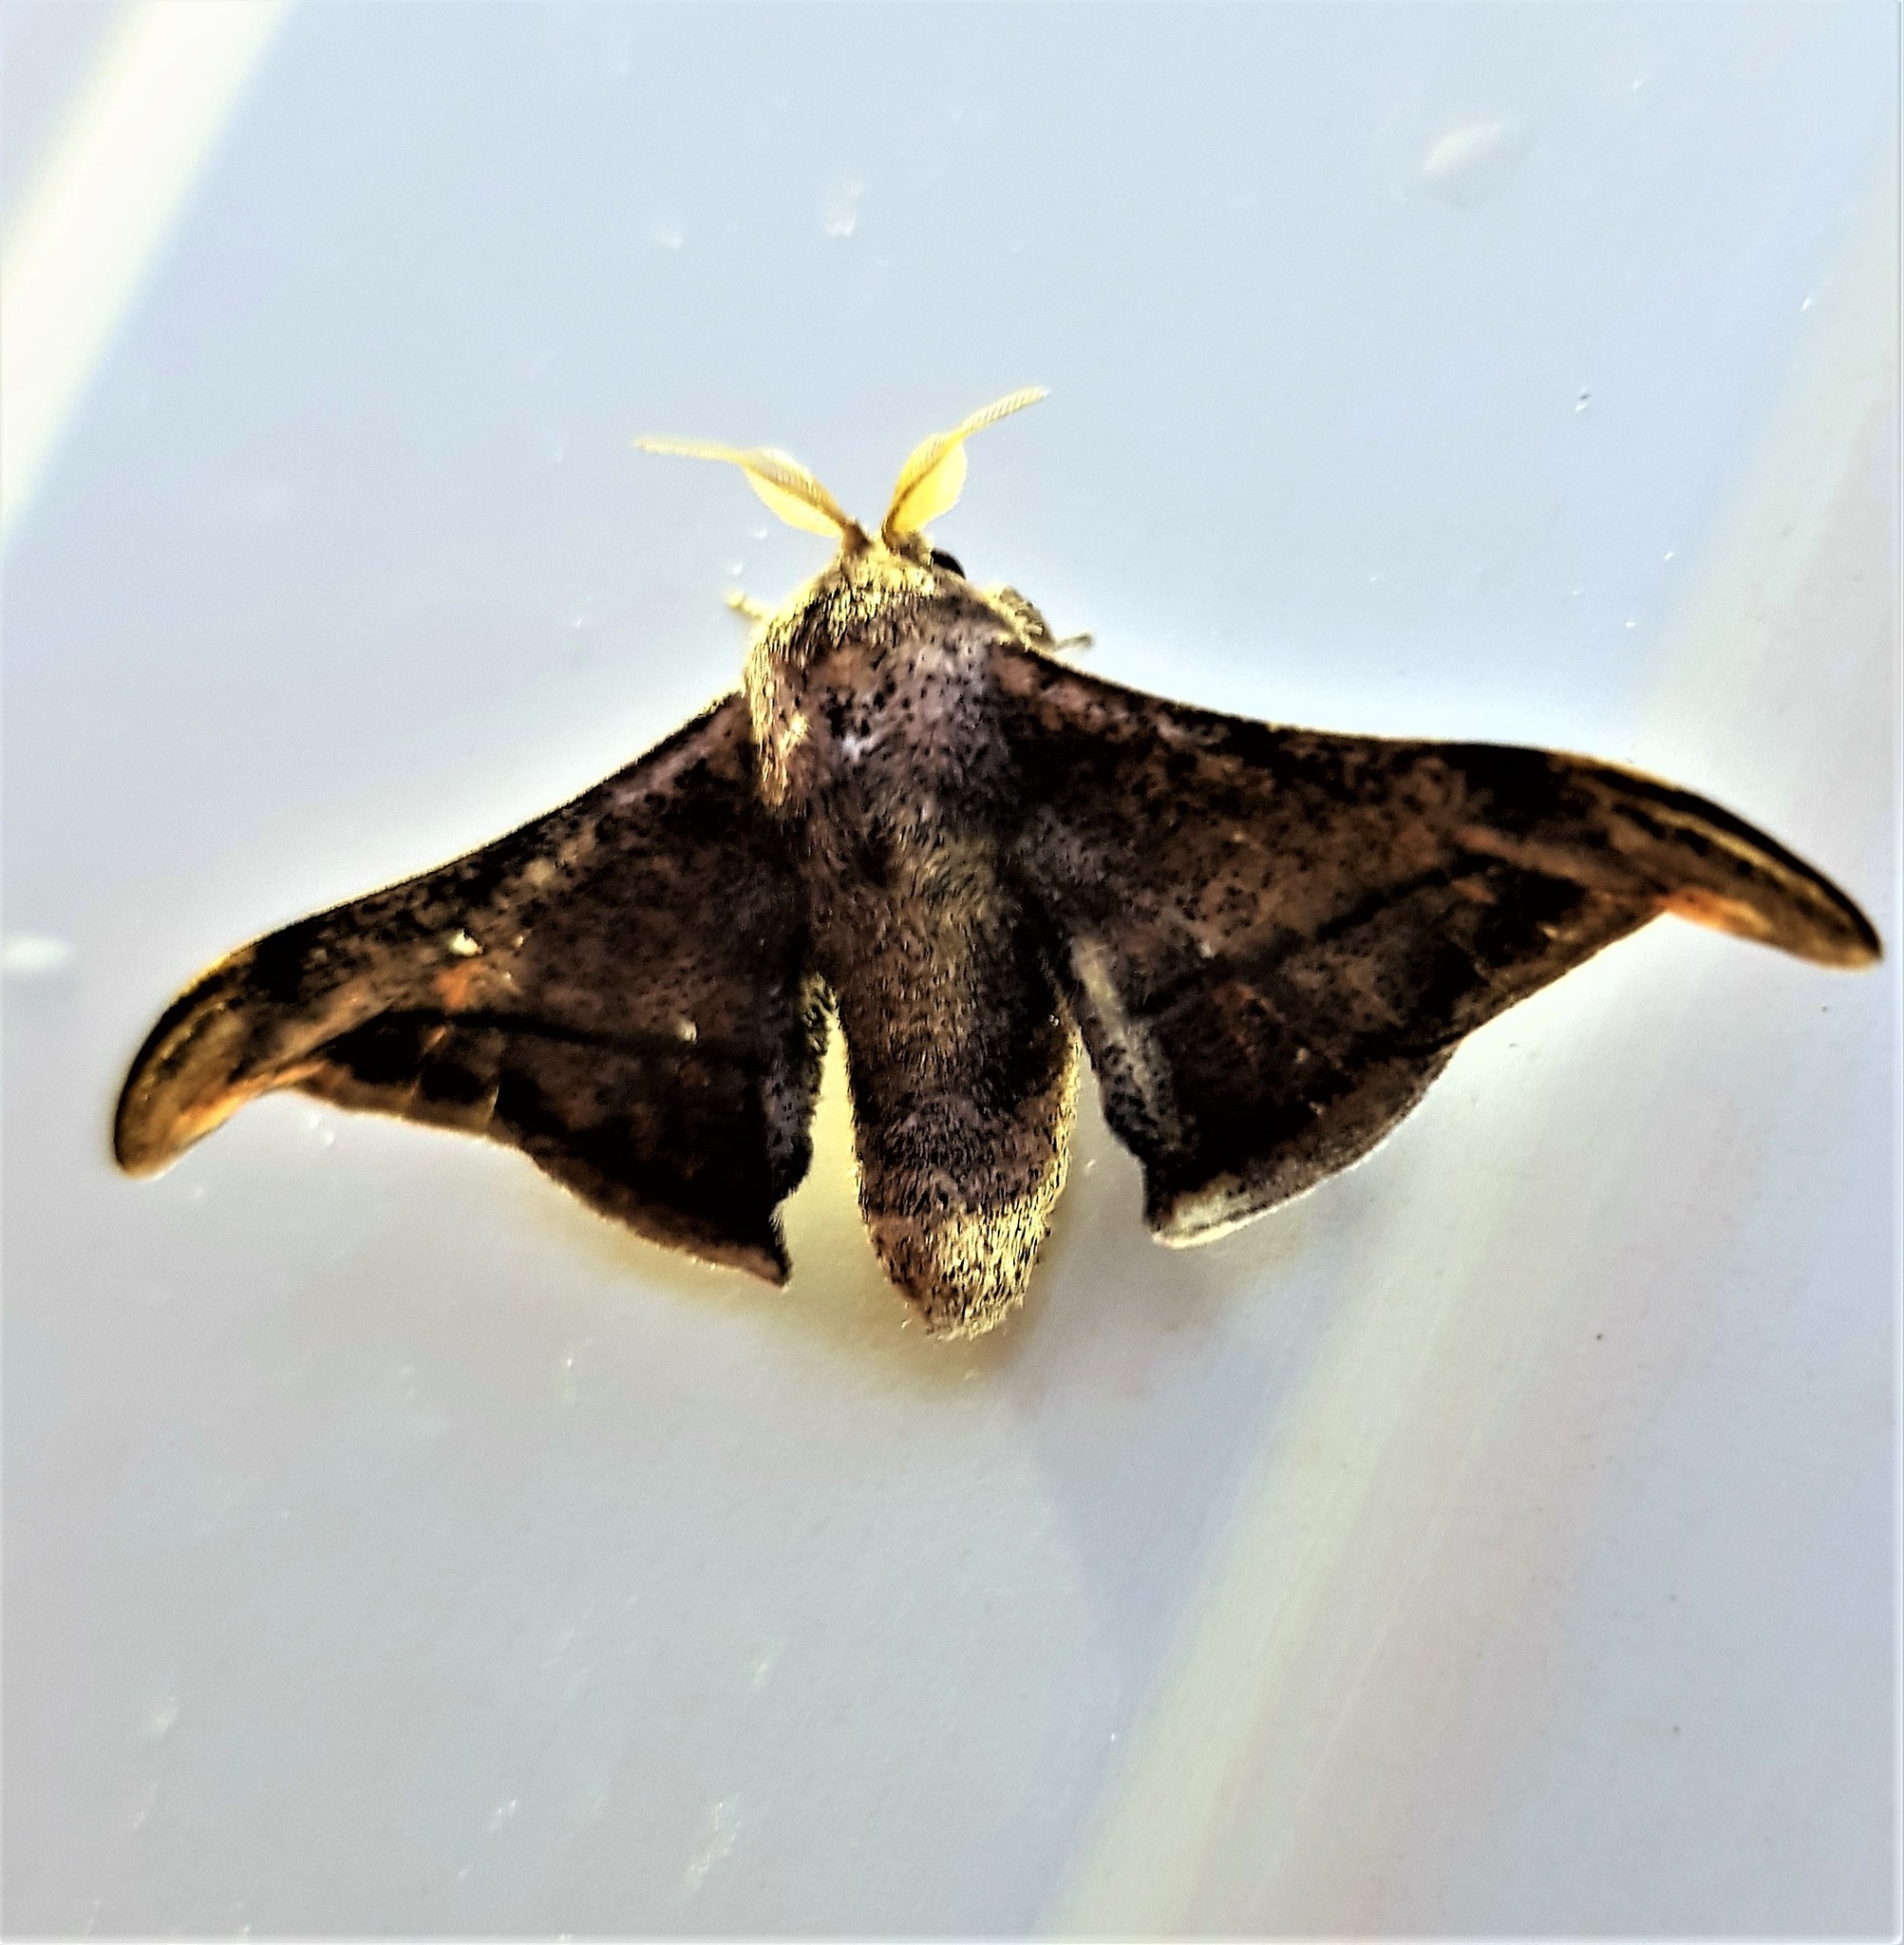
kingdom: Animalia
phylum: Arthropoda
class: Insecta
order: Lepidoptera
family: Mimallonidae
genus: Cicinnus
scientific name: Cicinnus malca
